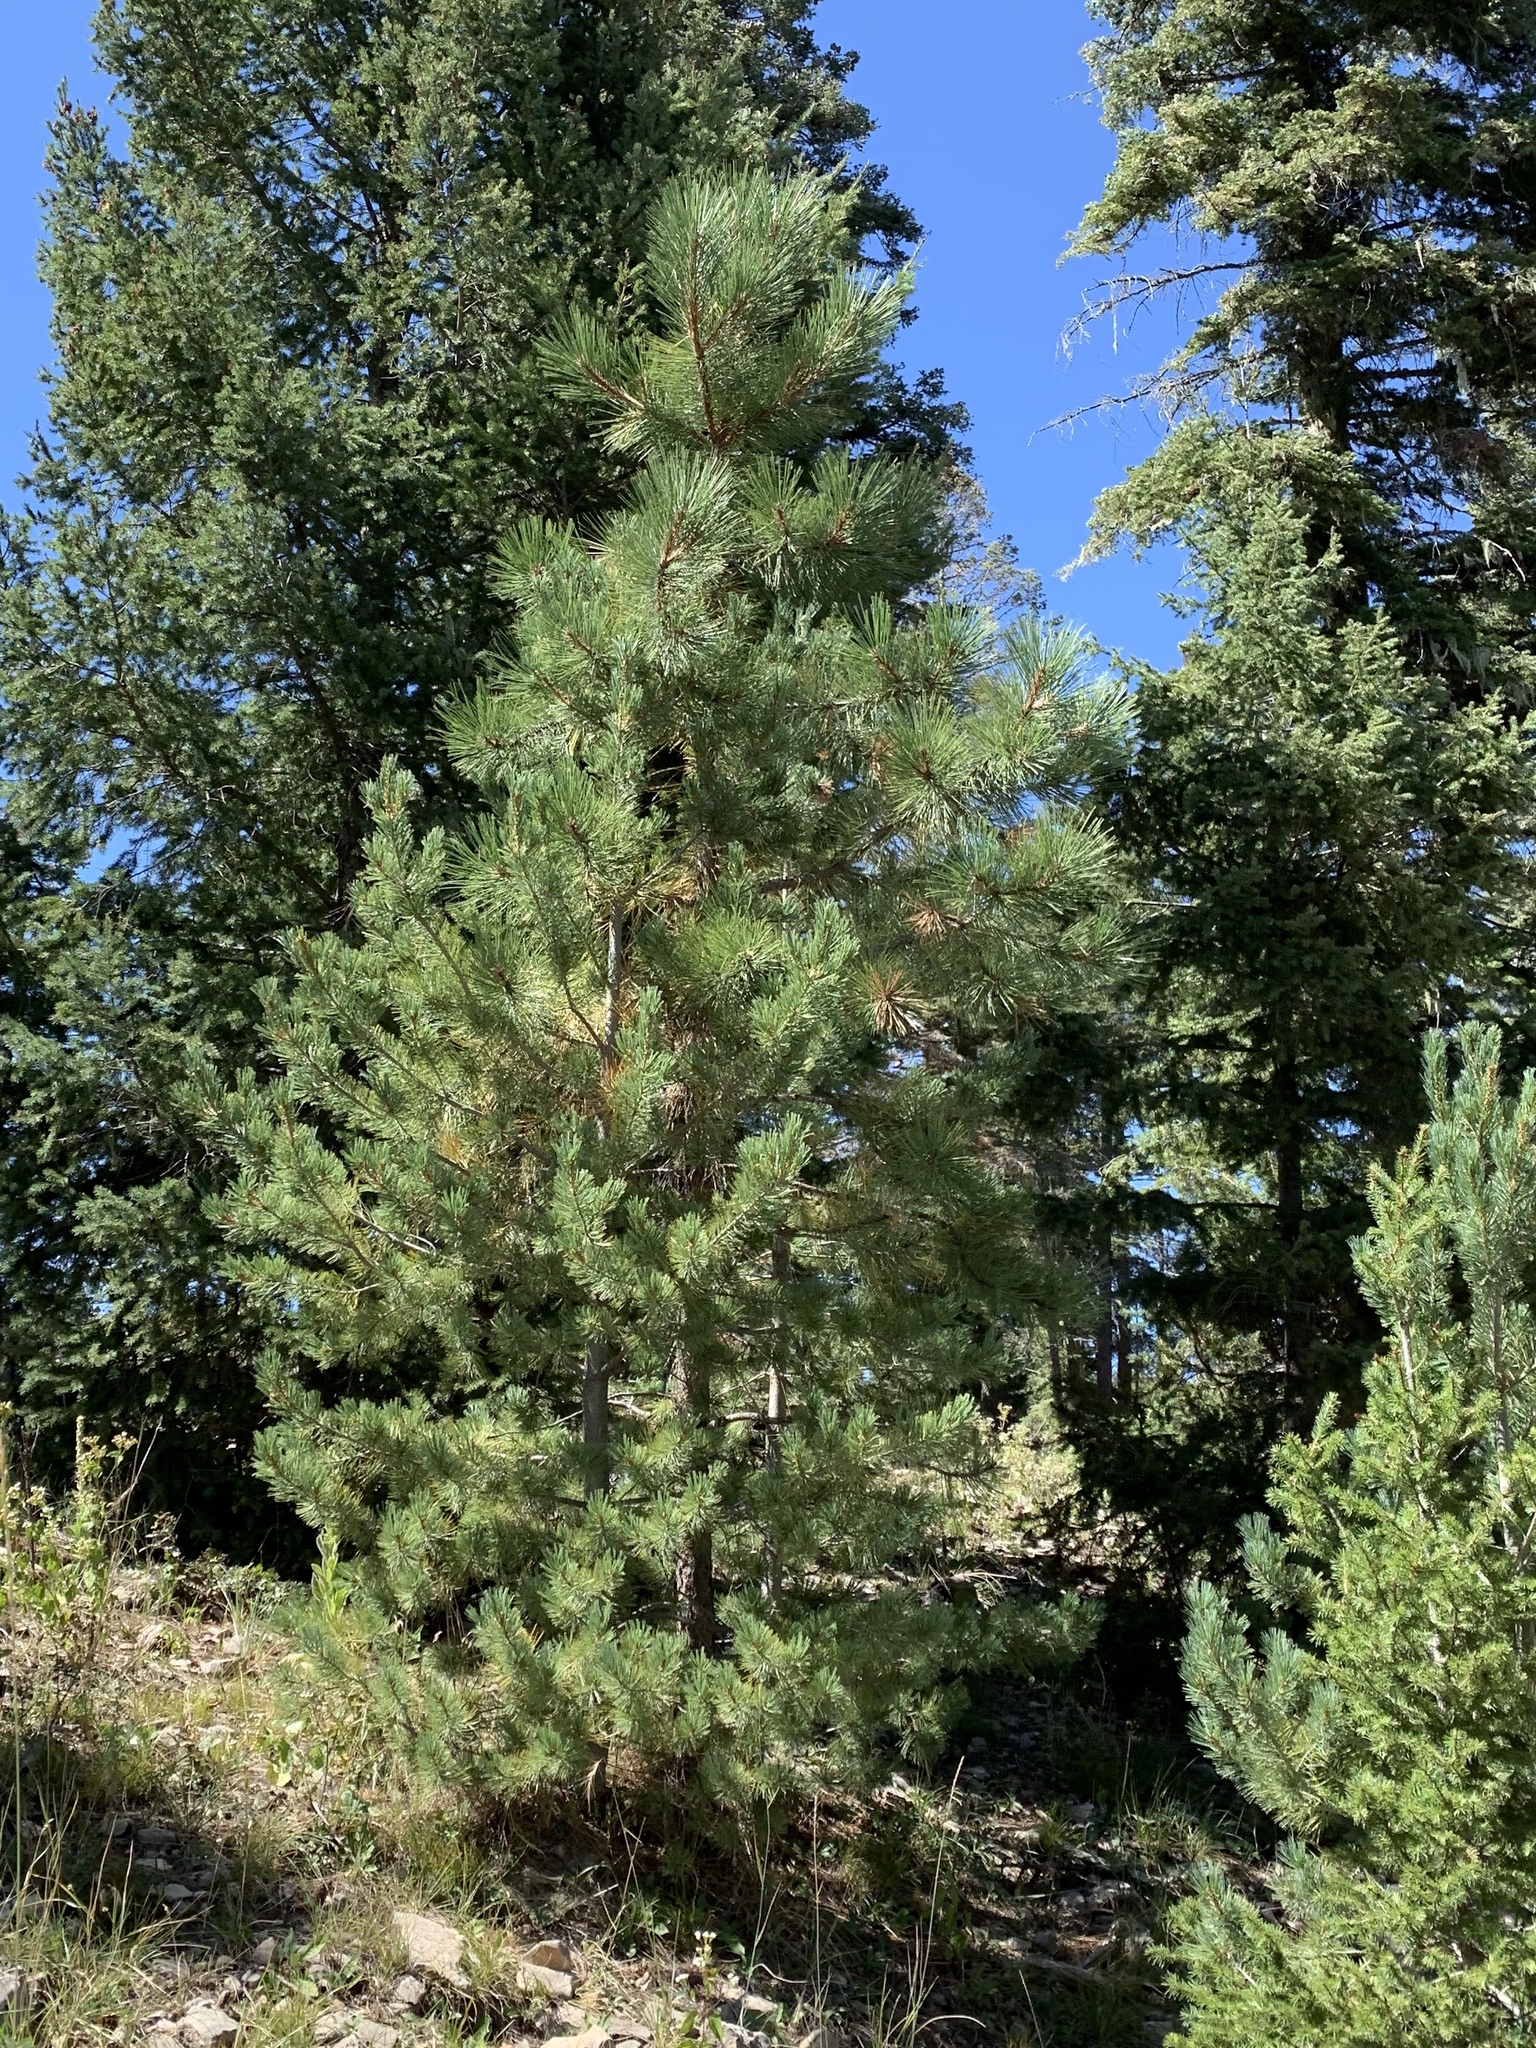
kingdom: Plantae
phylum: Tracheophyta
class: Pinopsida
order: Pinales
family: Pinaceae
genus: Pinus
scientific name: Pinus ponderosa
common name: Western yellow-pine
